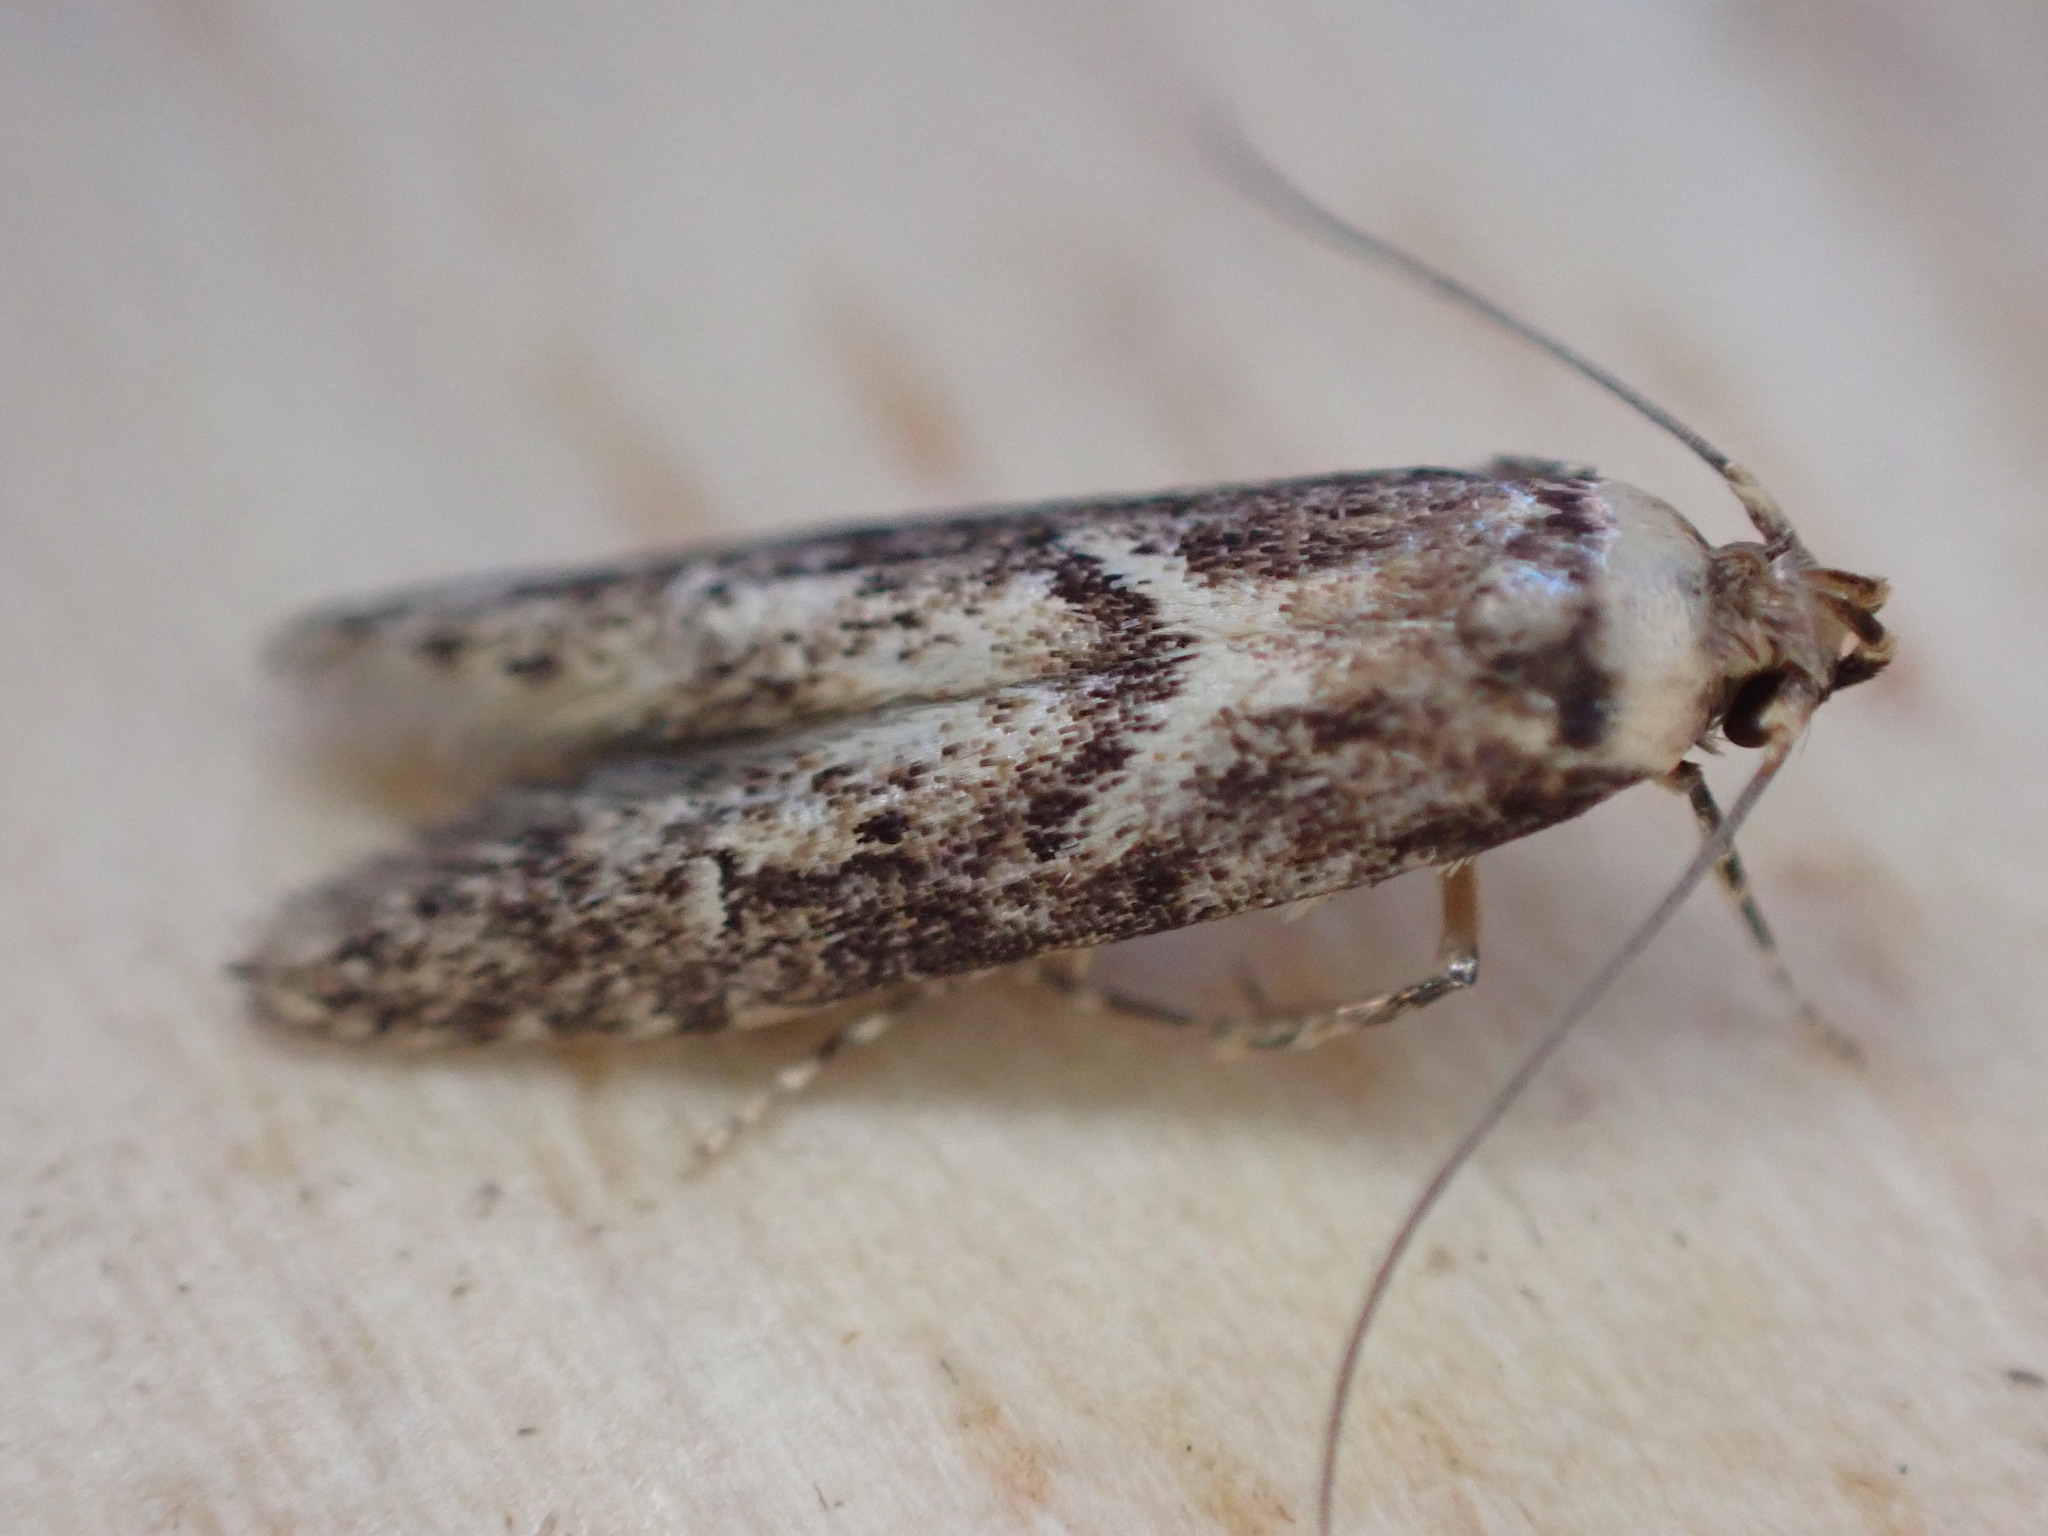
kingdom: Animalia
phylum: Arthropoda
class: Insecta
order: Lepidoptera
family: Blastobasidae
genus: Blastobasis
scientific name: Blastobasis adustella
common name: Dingy dowd
